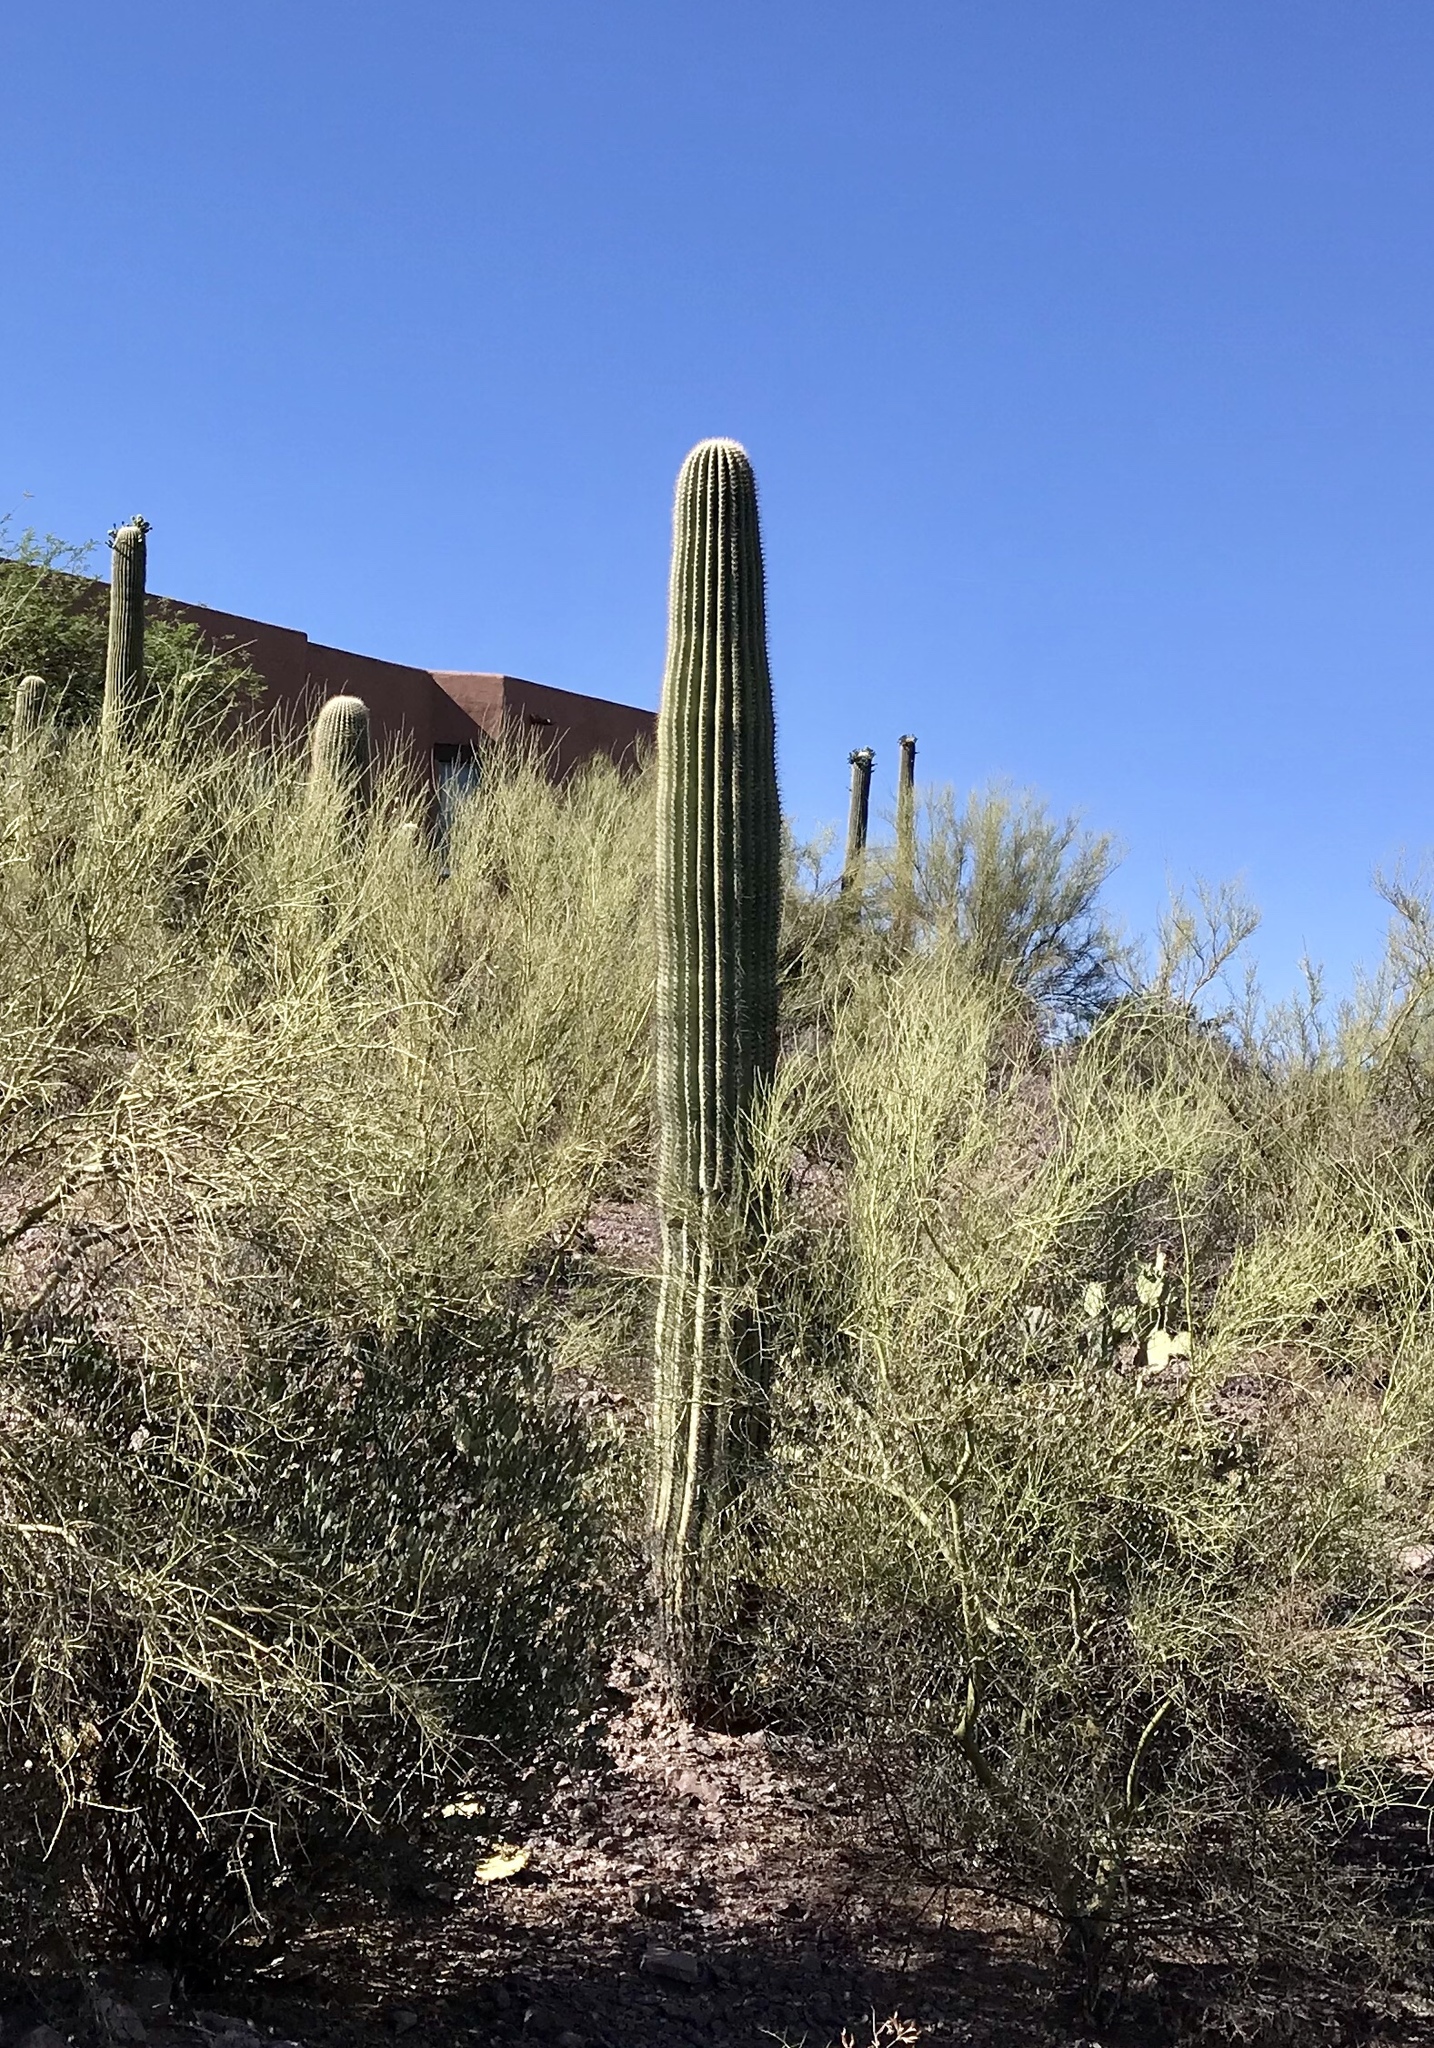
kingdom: Plantae
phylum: Tracheophyta
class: Magnoliopsida
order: Caryophyllales
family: Cactaceae
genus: Carnegiea
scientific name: Carnegiea gigantea
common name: Saguaro
